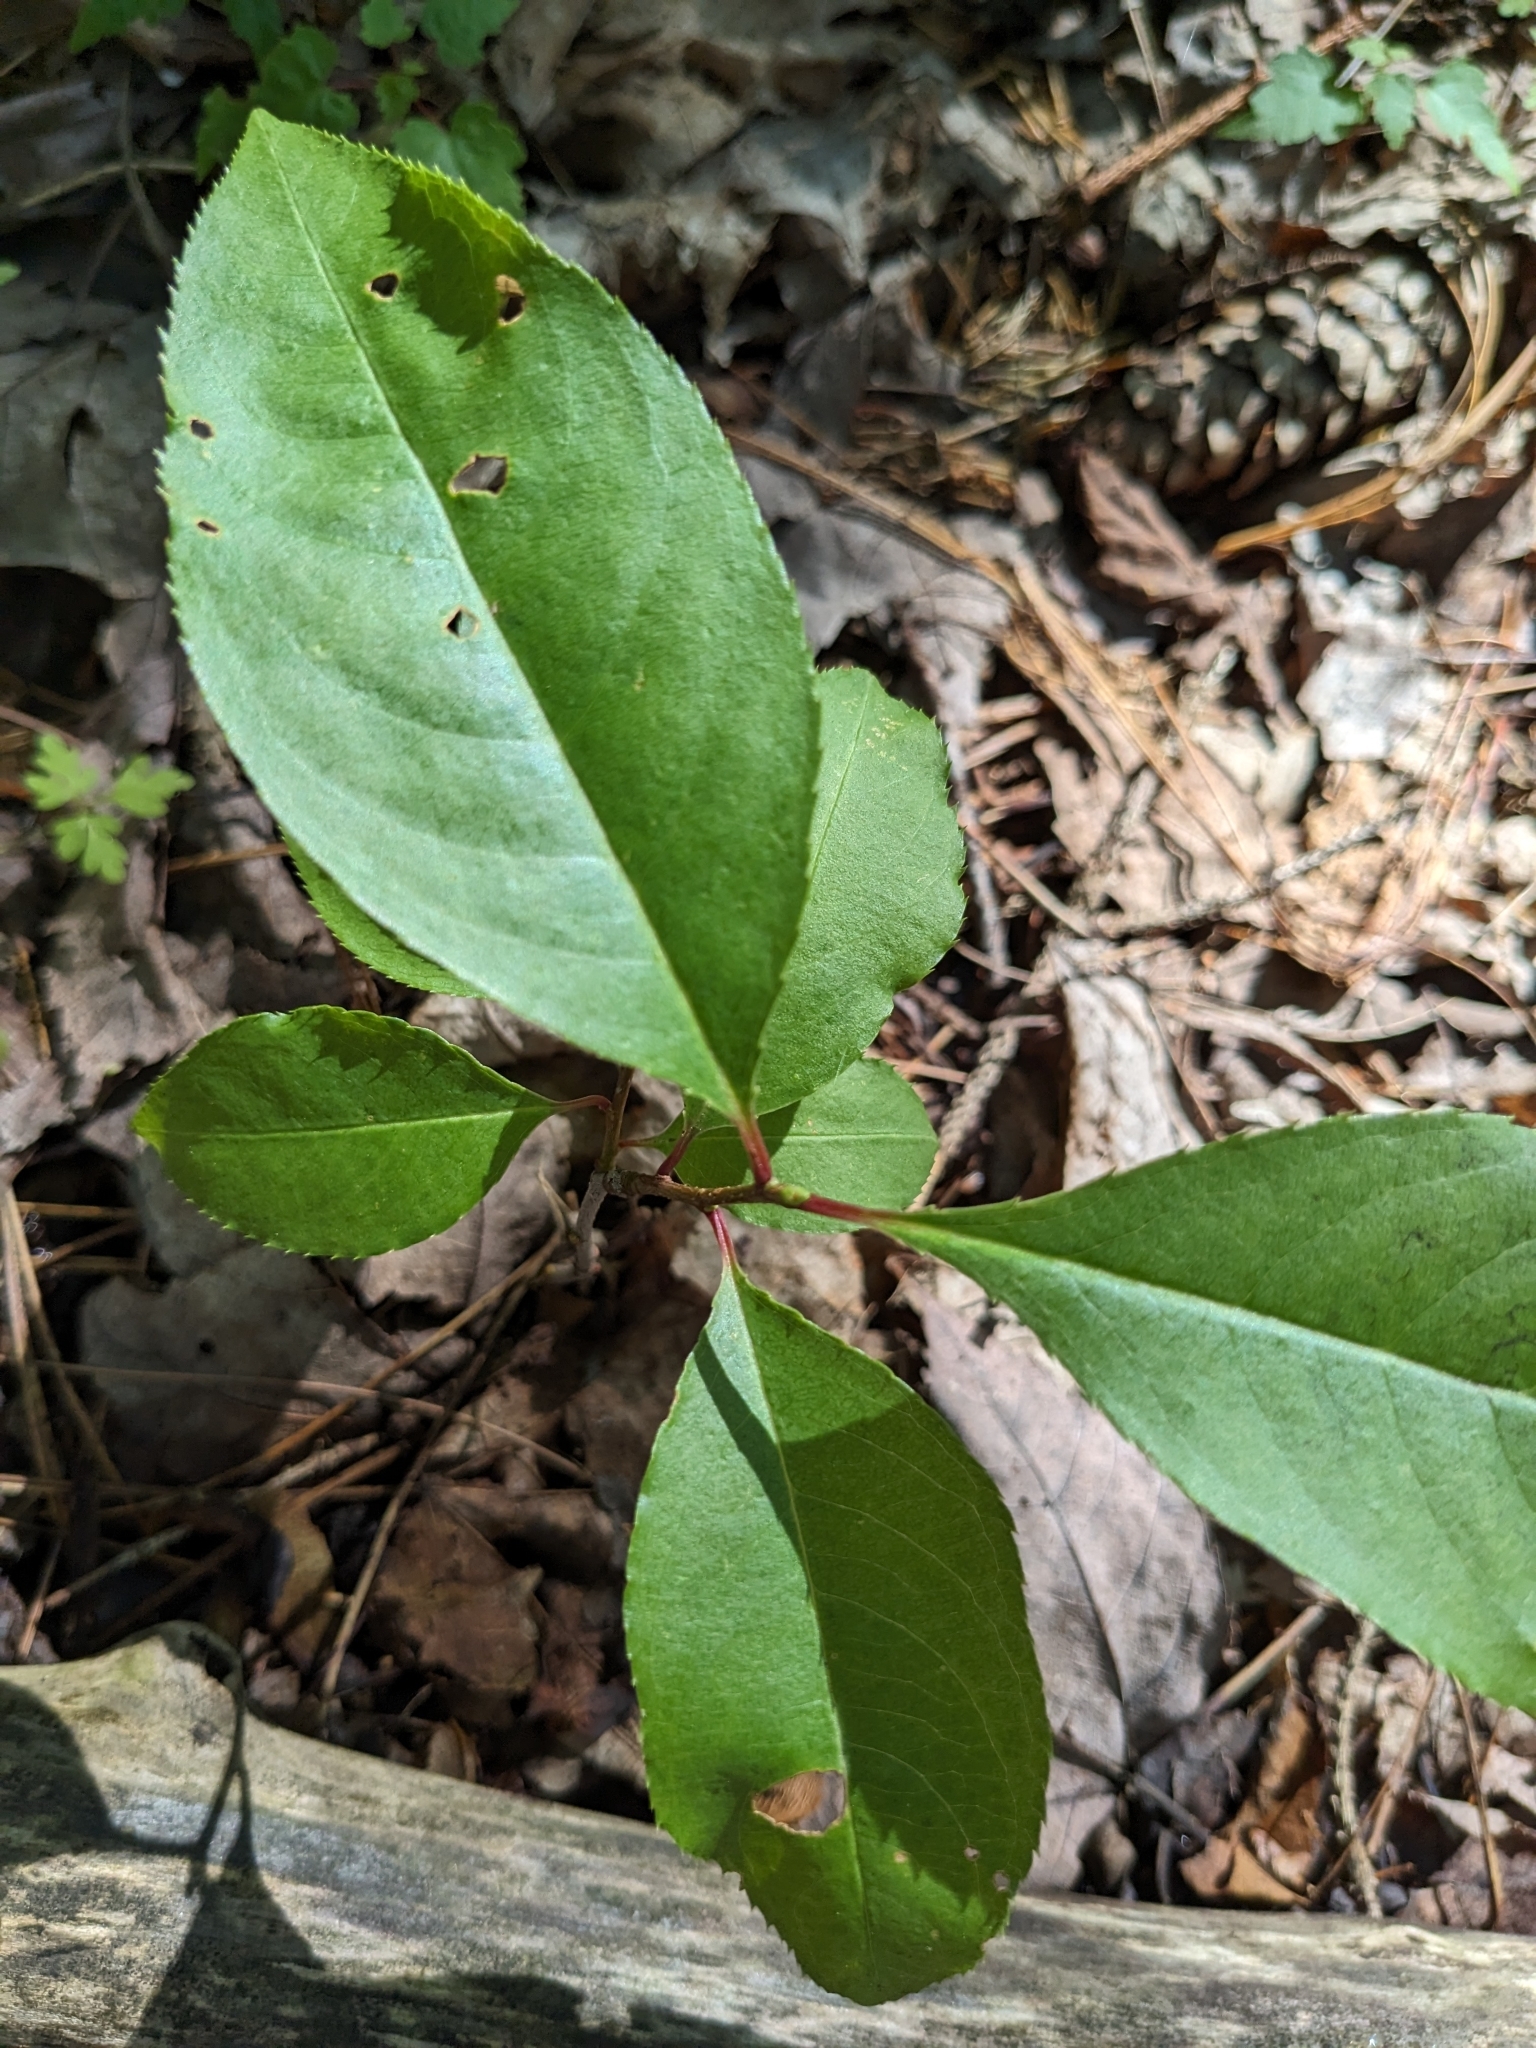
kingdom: Plantae
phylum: Tracheophyta
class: Magnoliopsida
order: Rosales
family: Rosaceae
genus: Prunus
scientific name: Prunus serotina
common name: Black cherry
